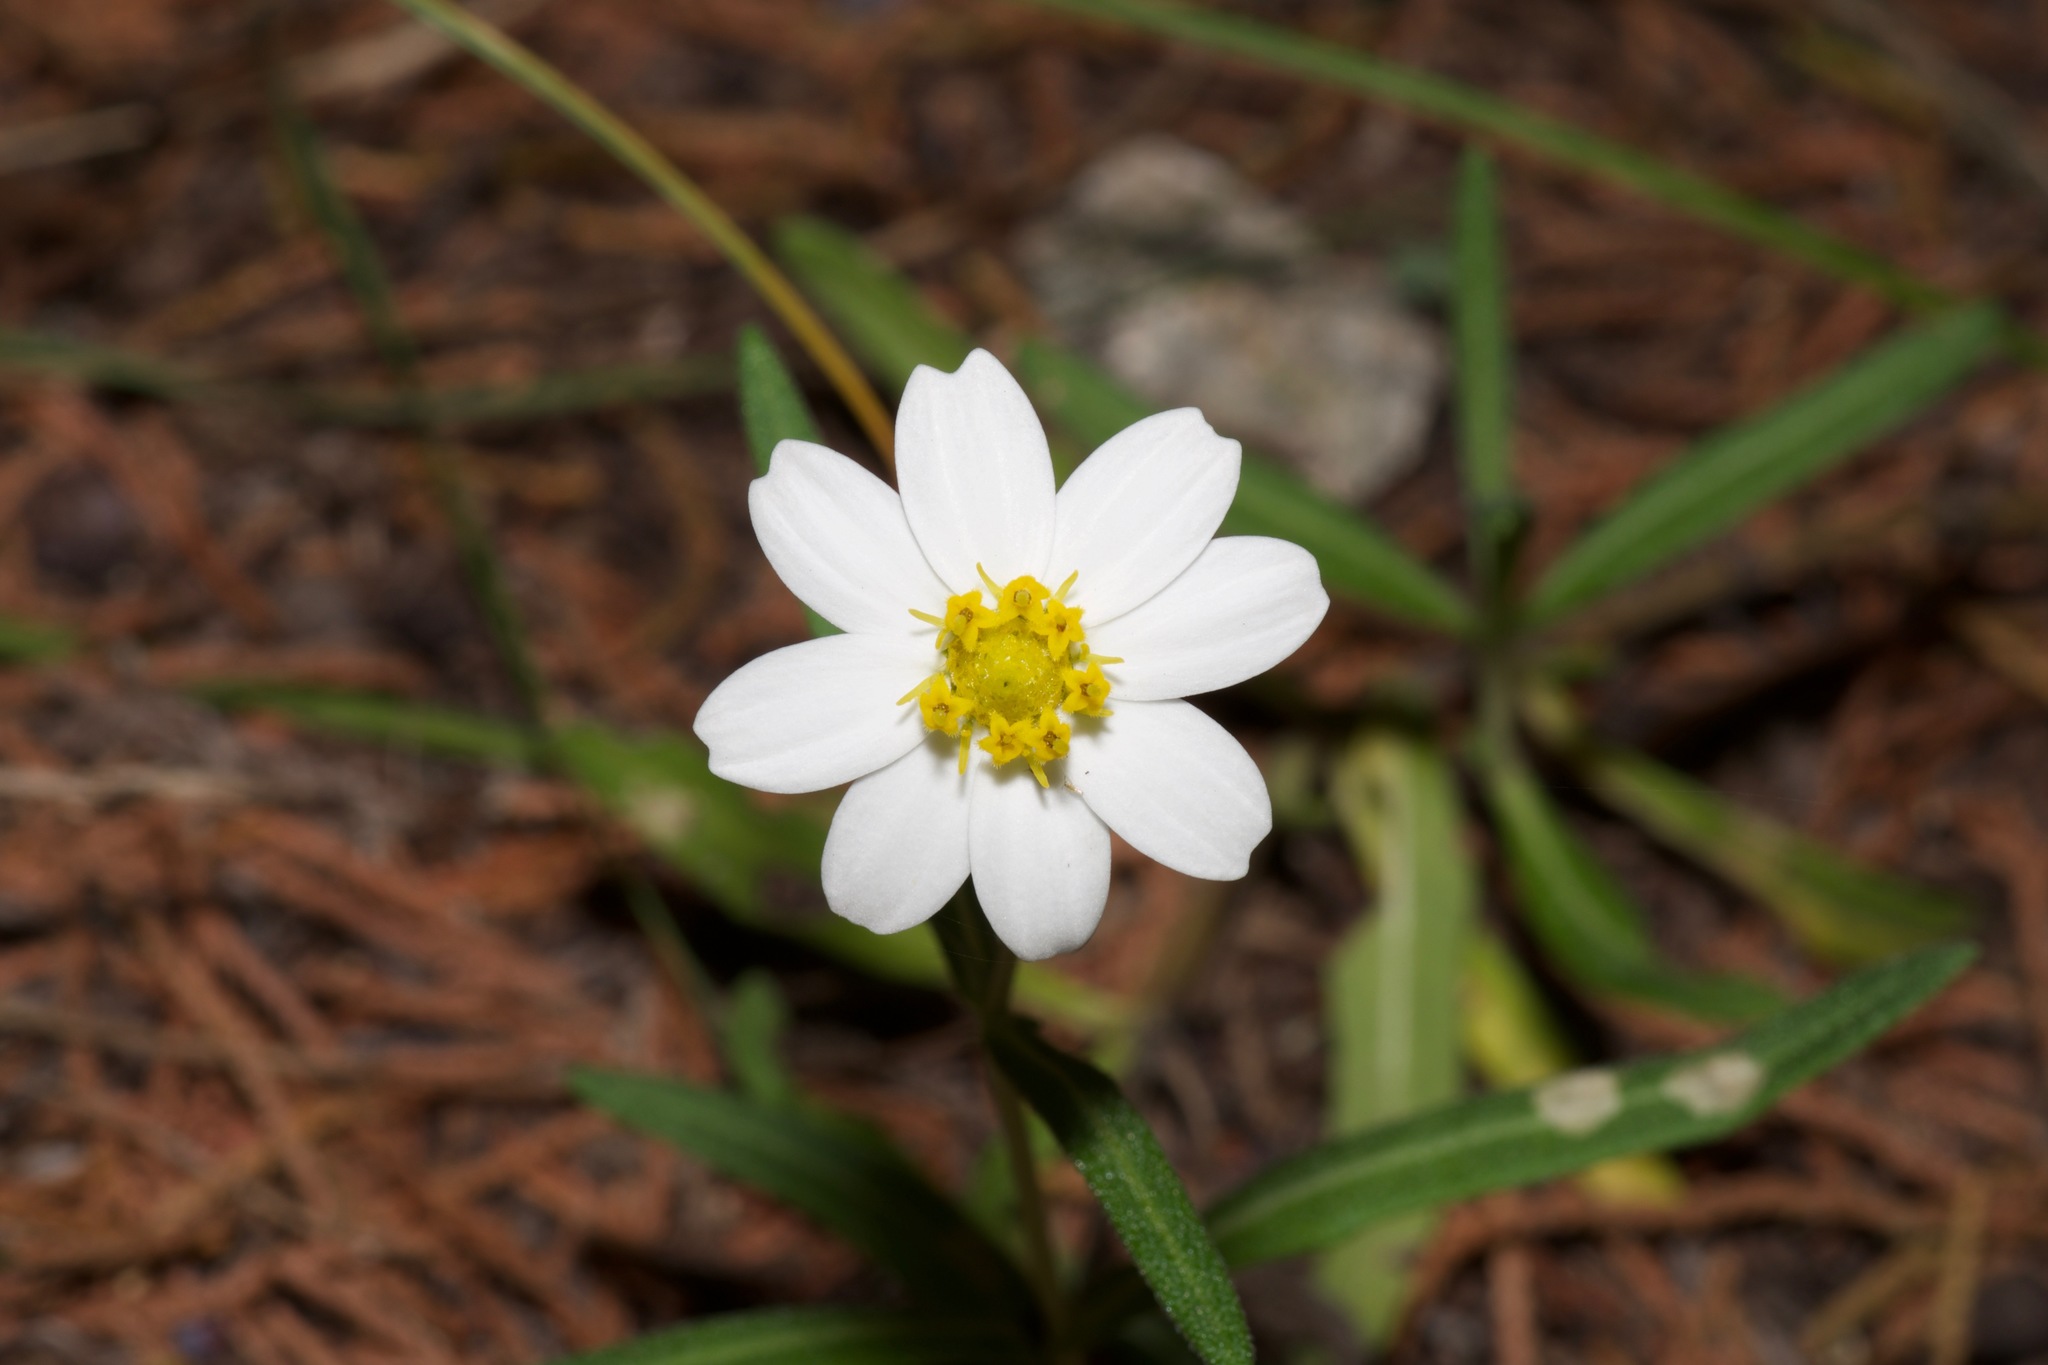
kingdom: Plantae
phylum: Tracheophyta
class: Magnoliopsida
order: Asterales
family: Asteraceae
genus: Melampodium
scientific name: Melampodium leucanthum
